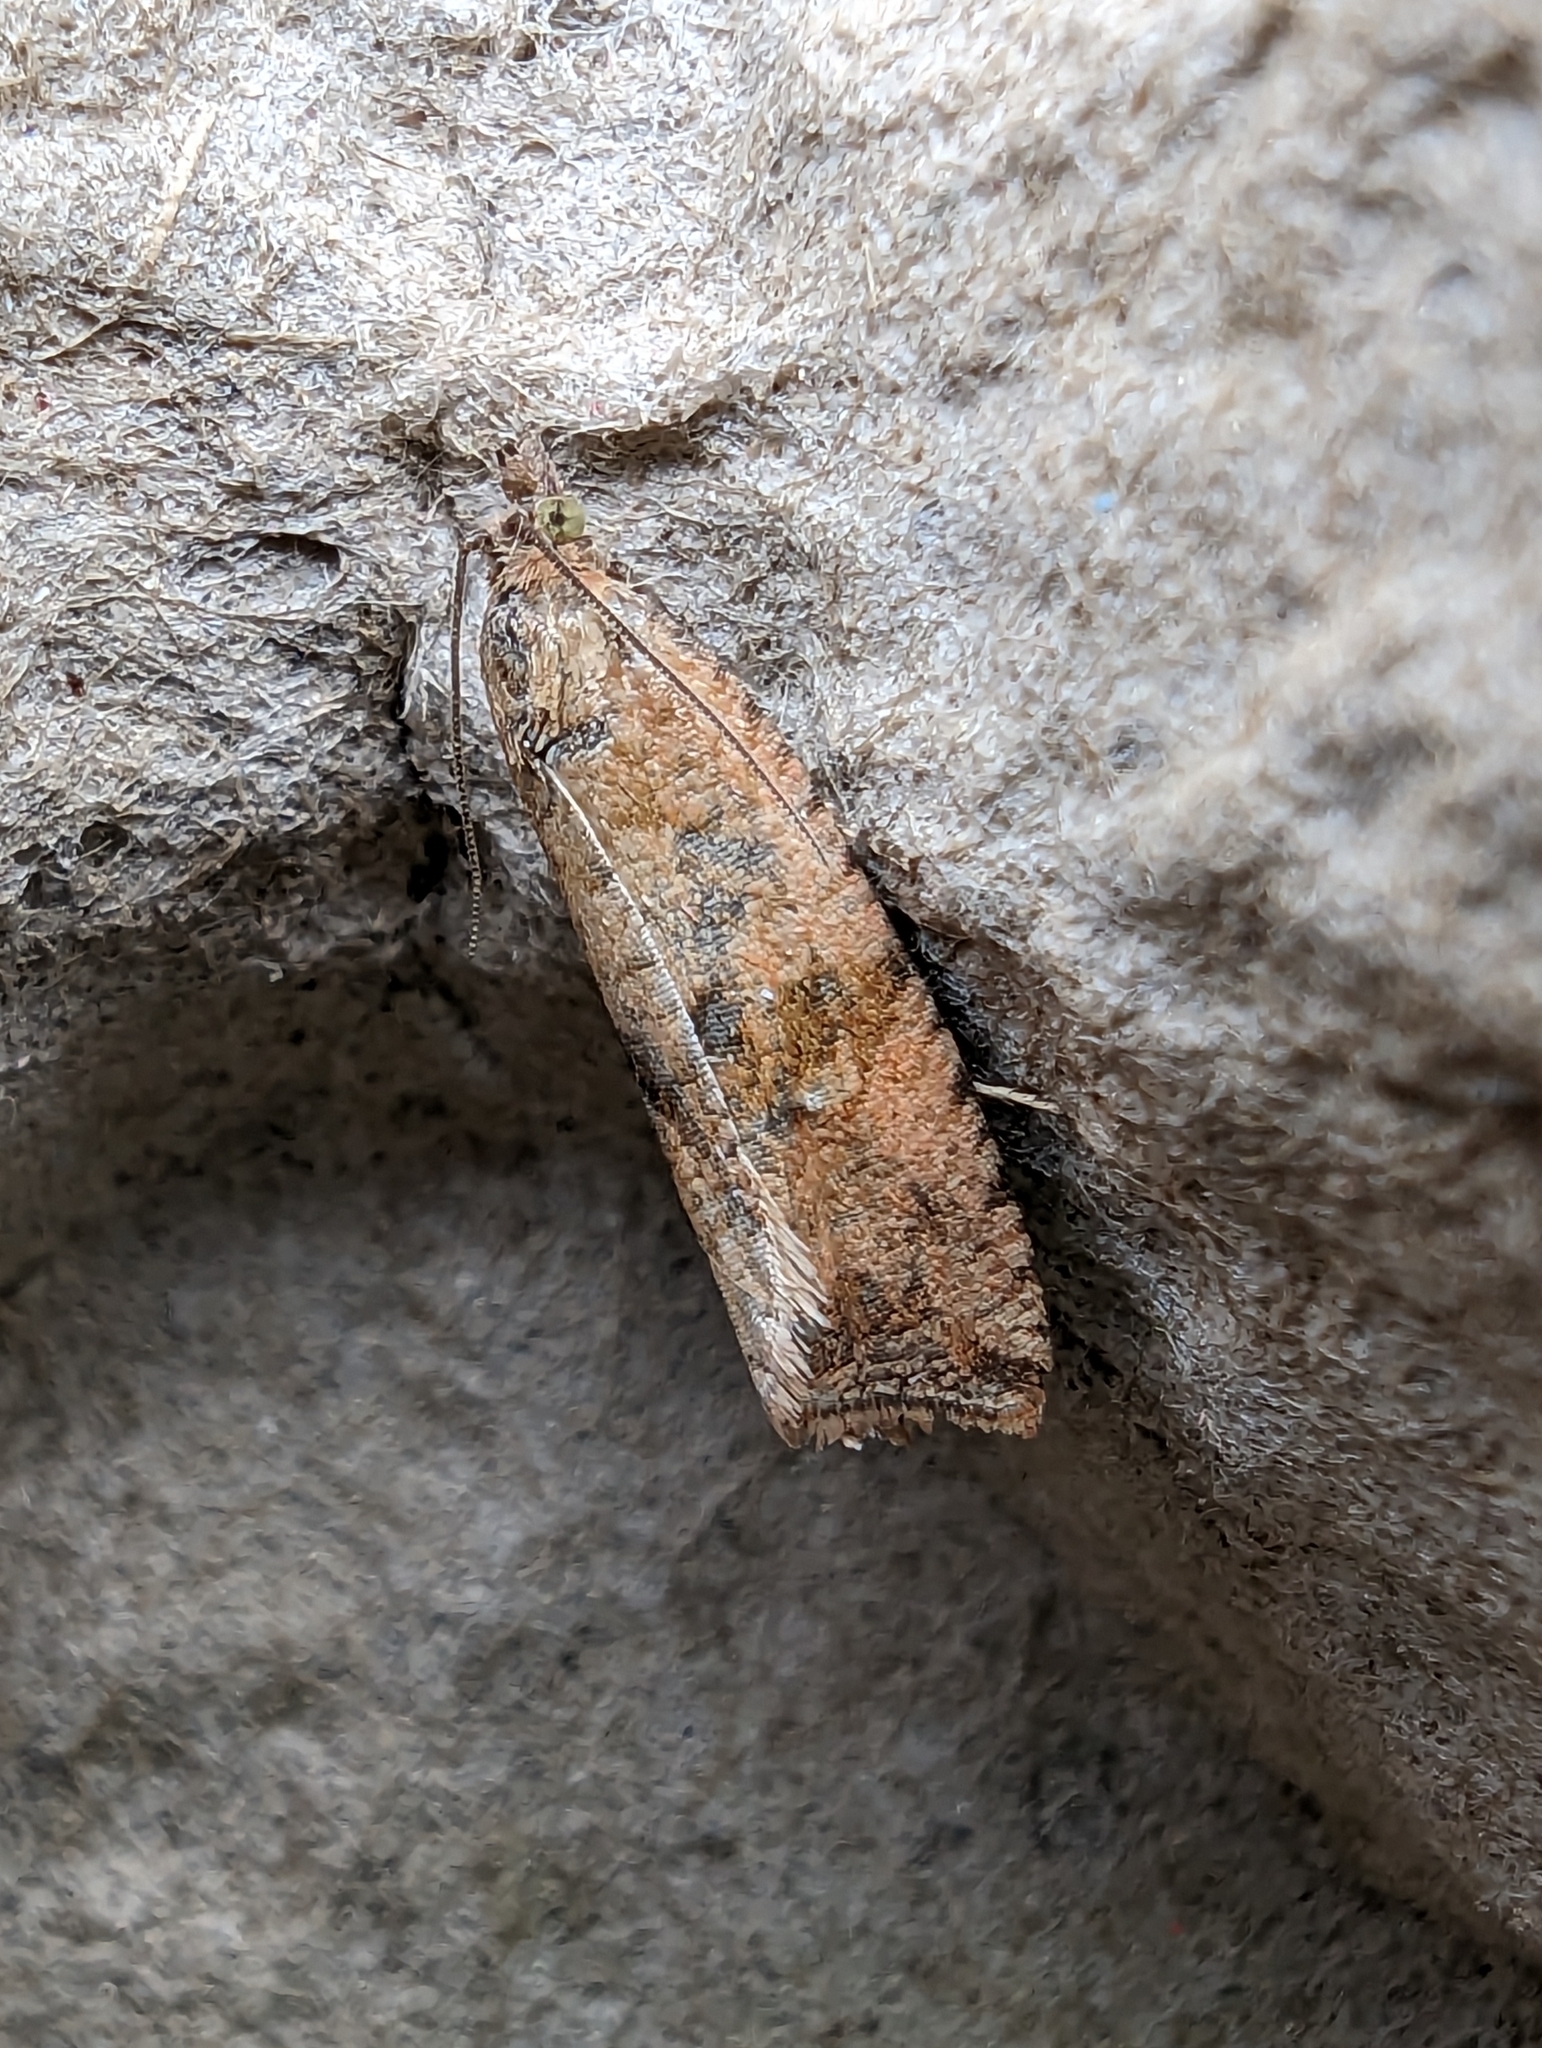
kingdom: Animalia
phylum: Arthropoda
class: Insecta
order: Lepidoptera
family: Tortricidae
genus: Celypha
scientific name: Celypha striana
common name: Barred marble
